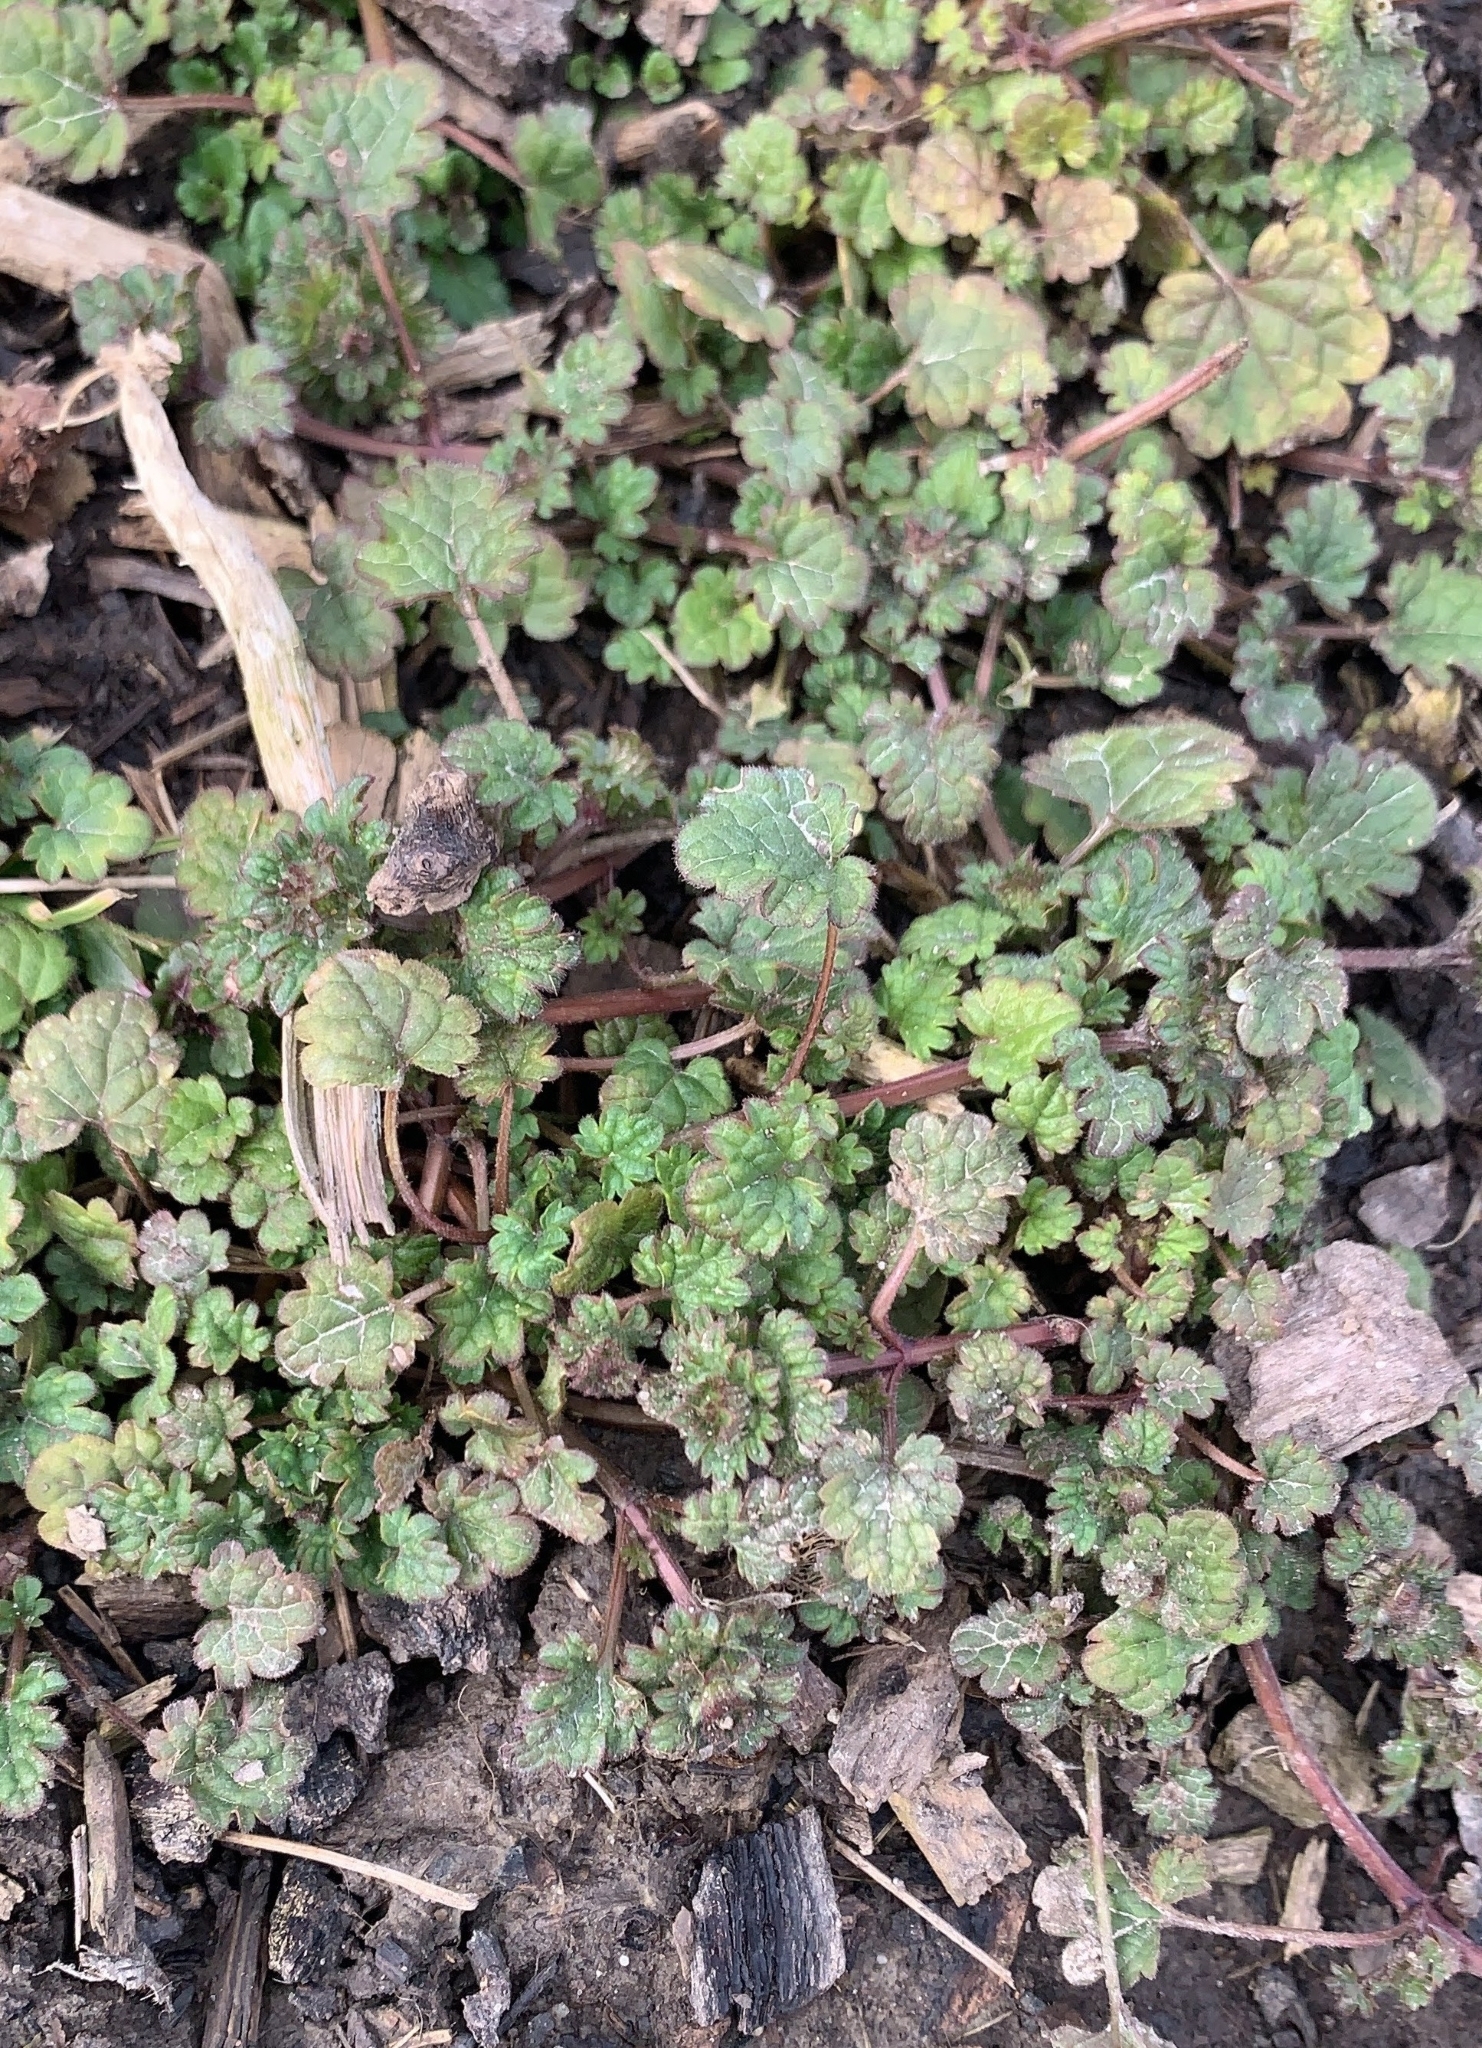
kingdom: Plantae
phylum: Tracheophyta
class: Magnoliopsida
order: Lamiales
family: Lamiaceae
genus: Lamium
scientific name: Lamium amplexicaule
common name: Henbit dead-nettle
